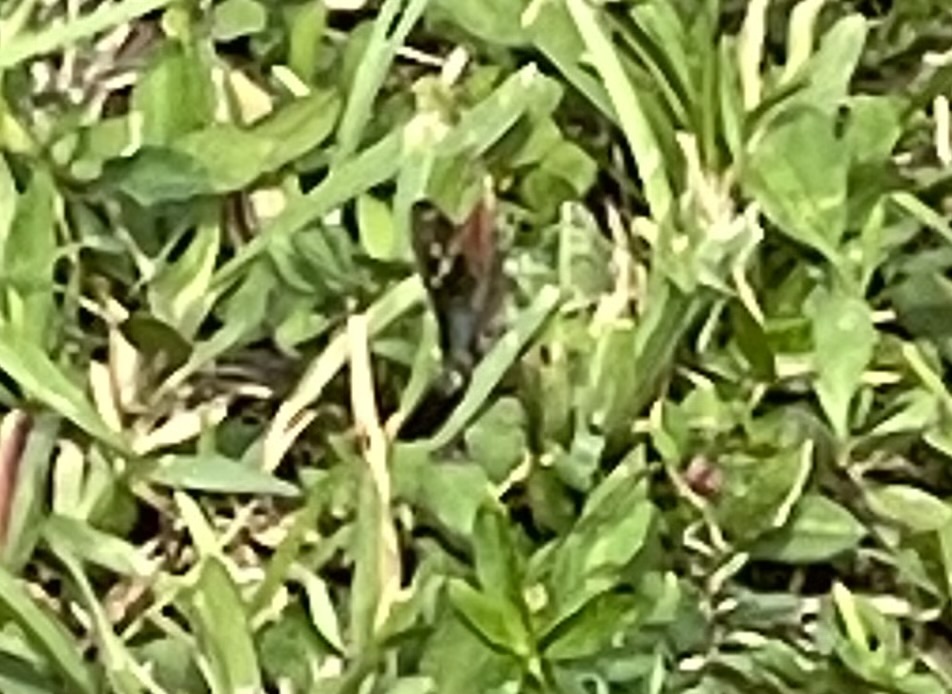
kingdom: Animalia
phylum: Arthropoda
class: Insecta
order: Lepidoptera
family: Hesperiidae
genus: Urbanus
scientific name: Urbanus proteus
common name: Long-tailed skipper
